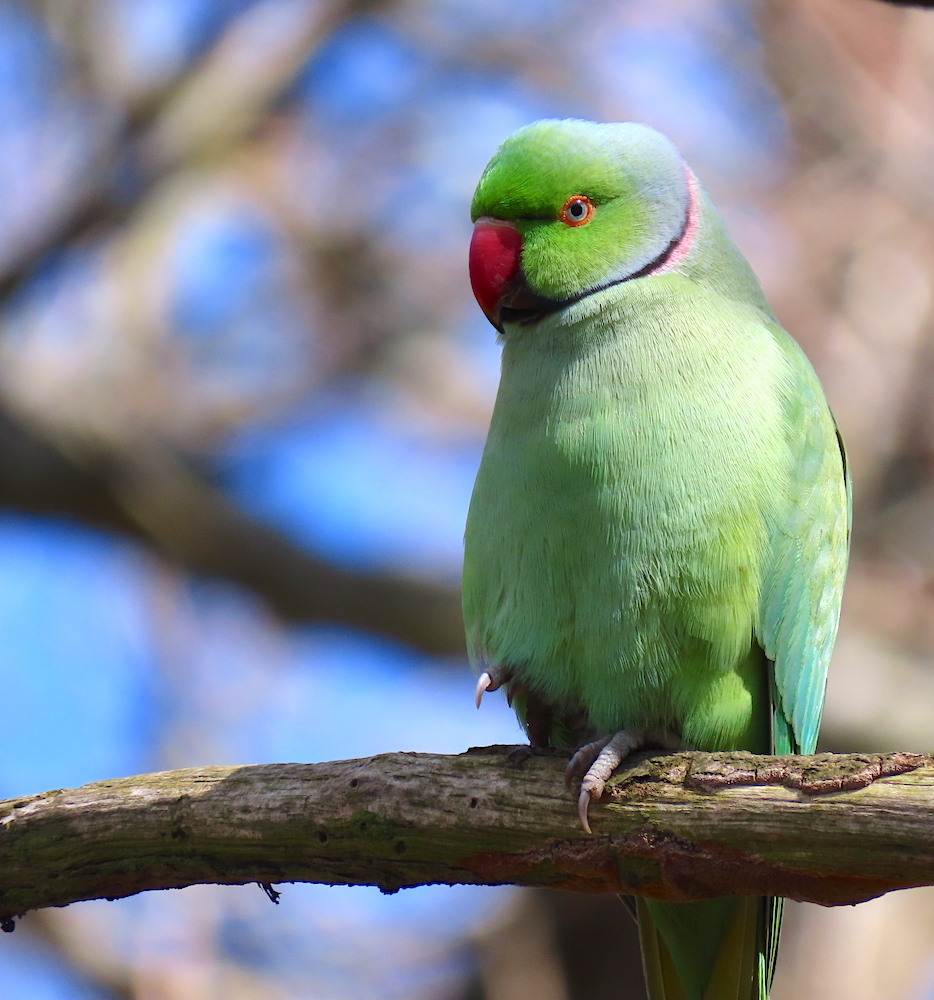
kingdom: Animalia
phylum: Chordata
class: Aves
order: Psittaciformes
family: Psittacidae
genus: Psittacula
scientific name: Psittacula krameri
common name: Rose-ringed parakeet
